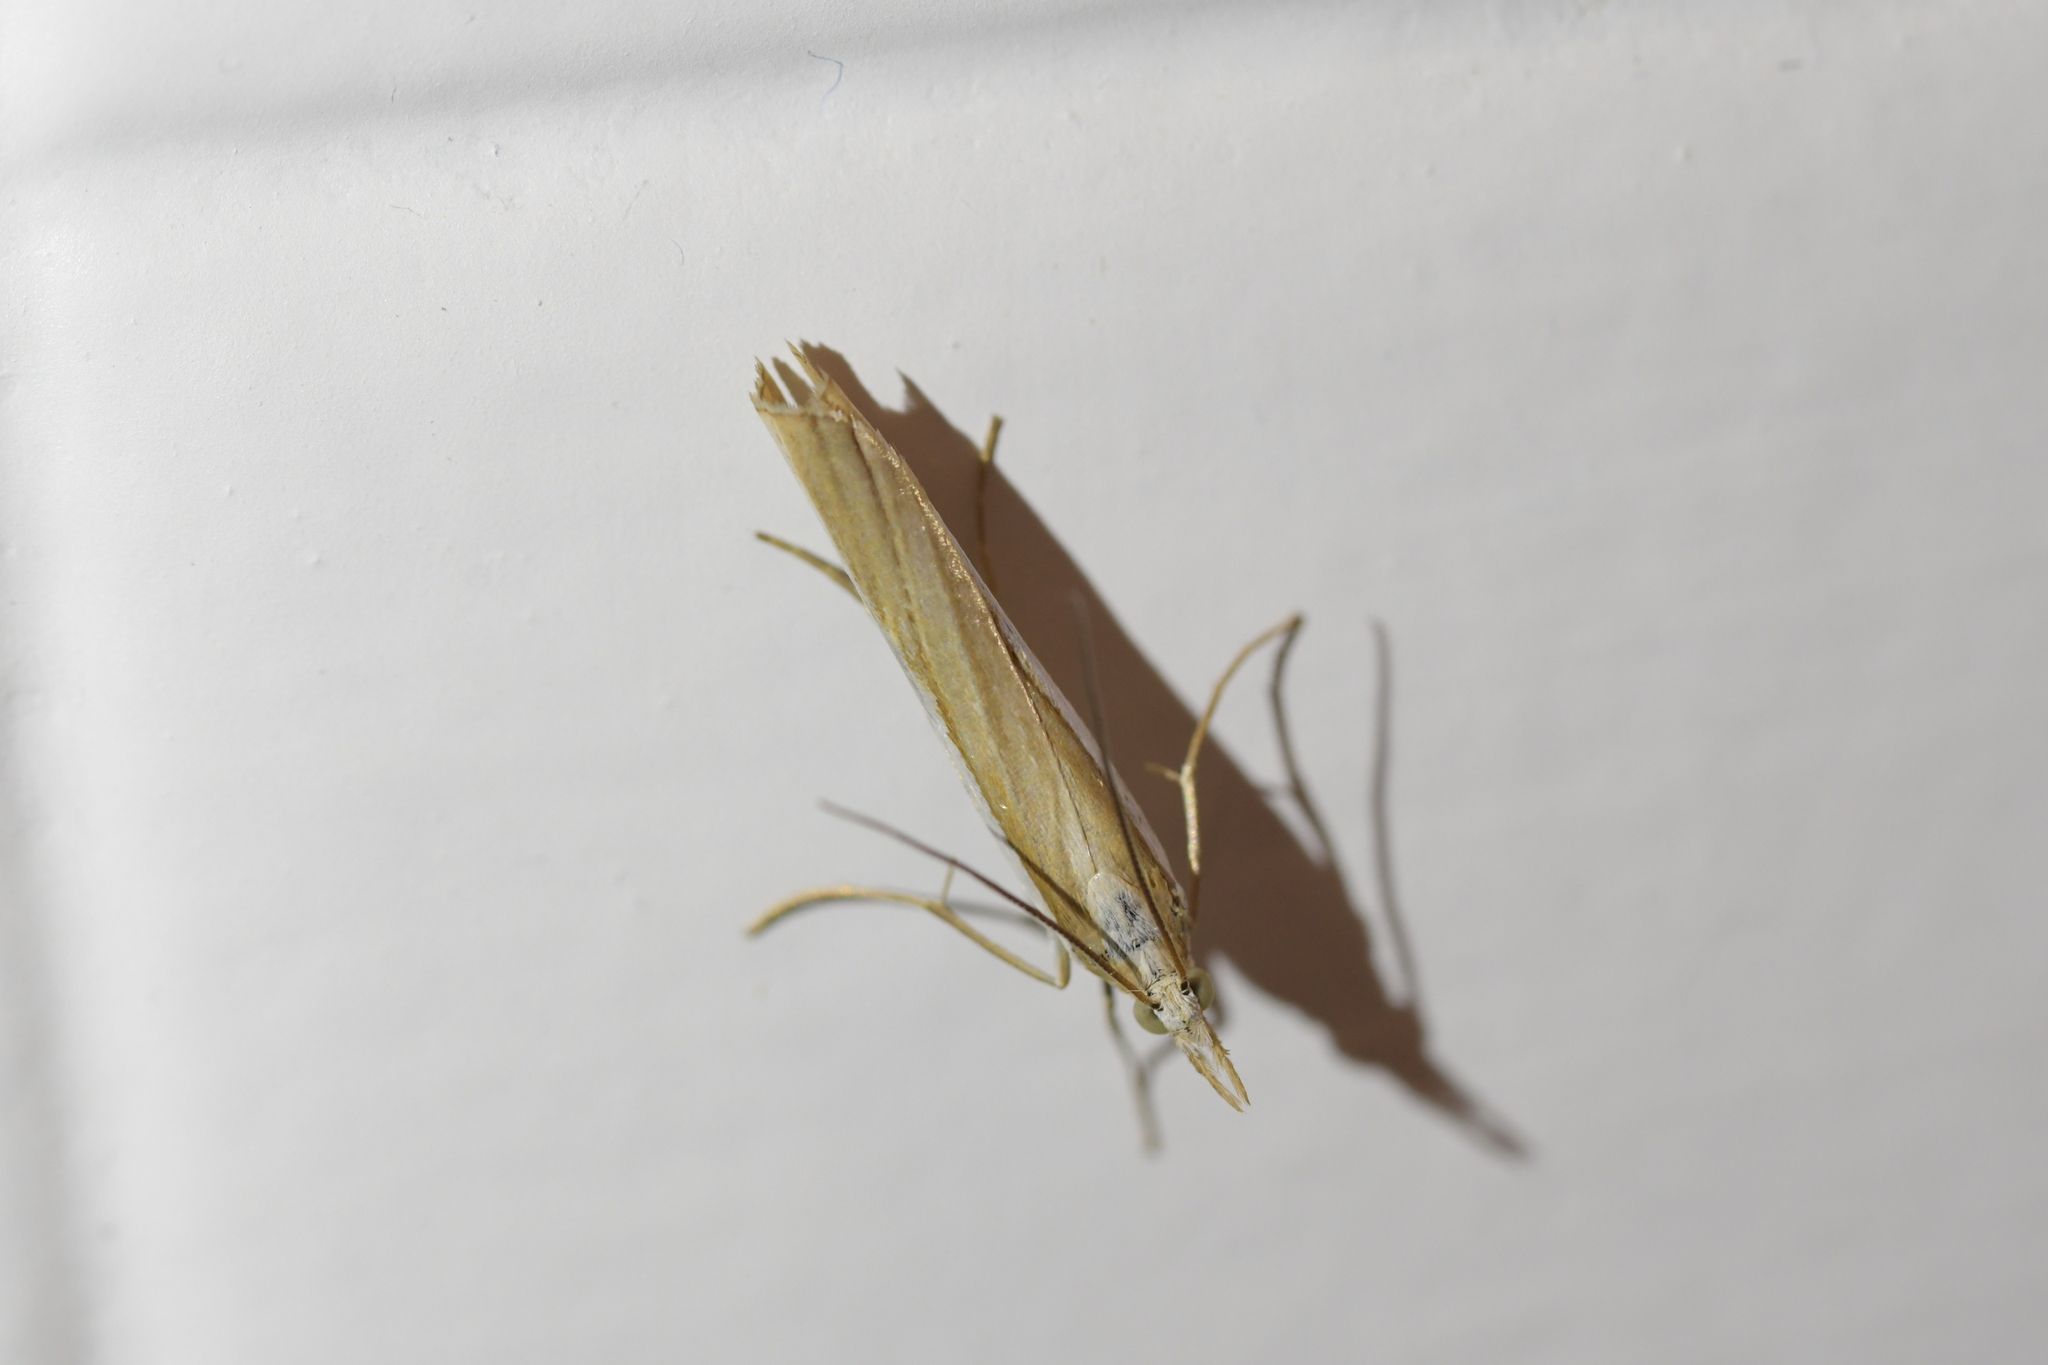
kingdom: Animalia
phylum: Arthropoda
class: Insecta
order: Lepidoptera
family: Crambidae
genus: Orocrambus
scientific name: Orocrambus vittellus
